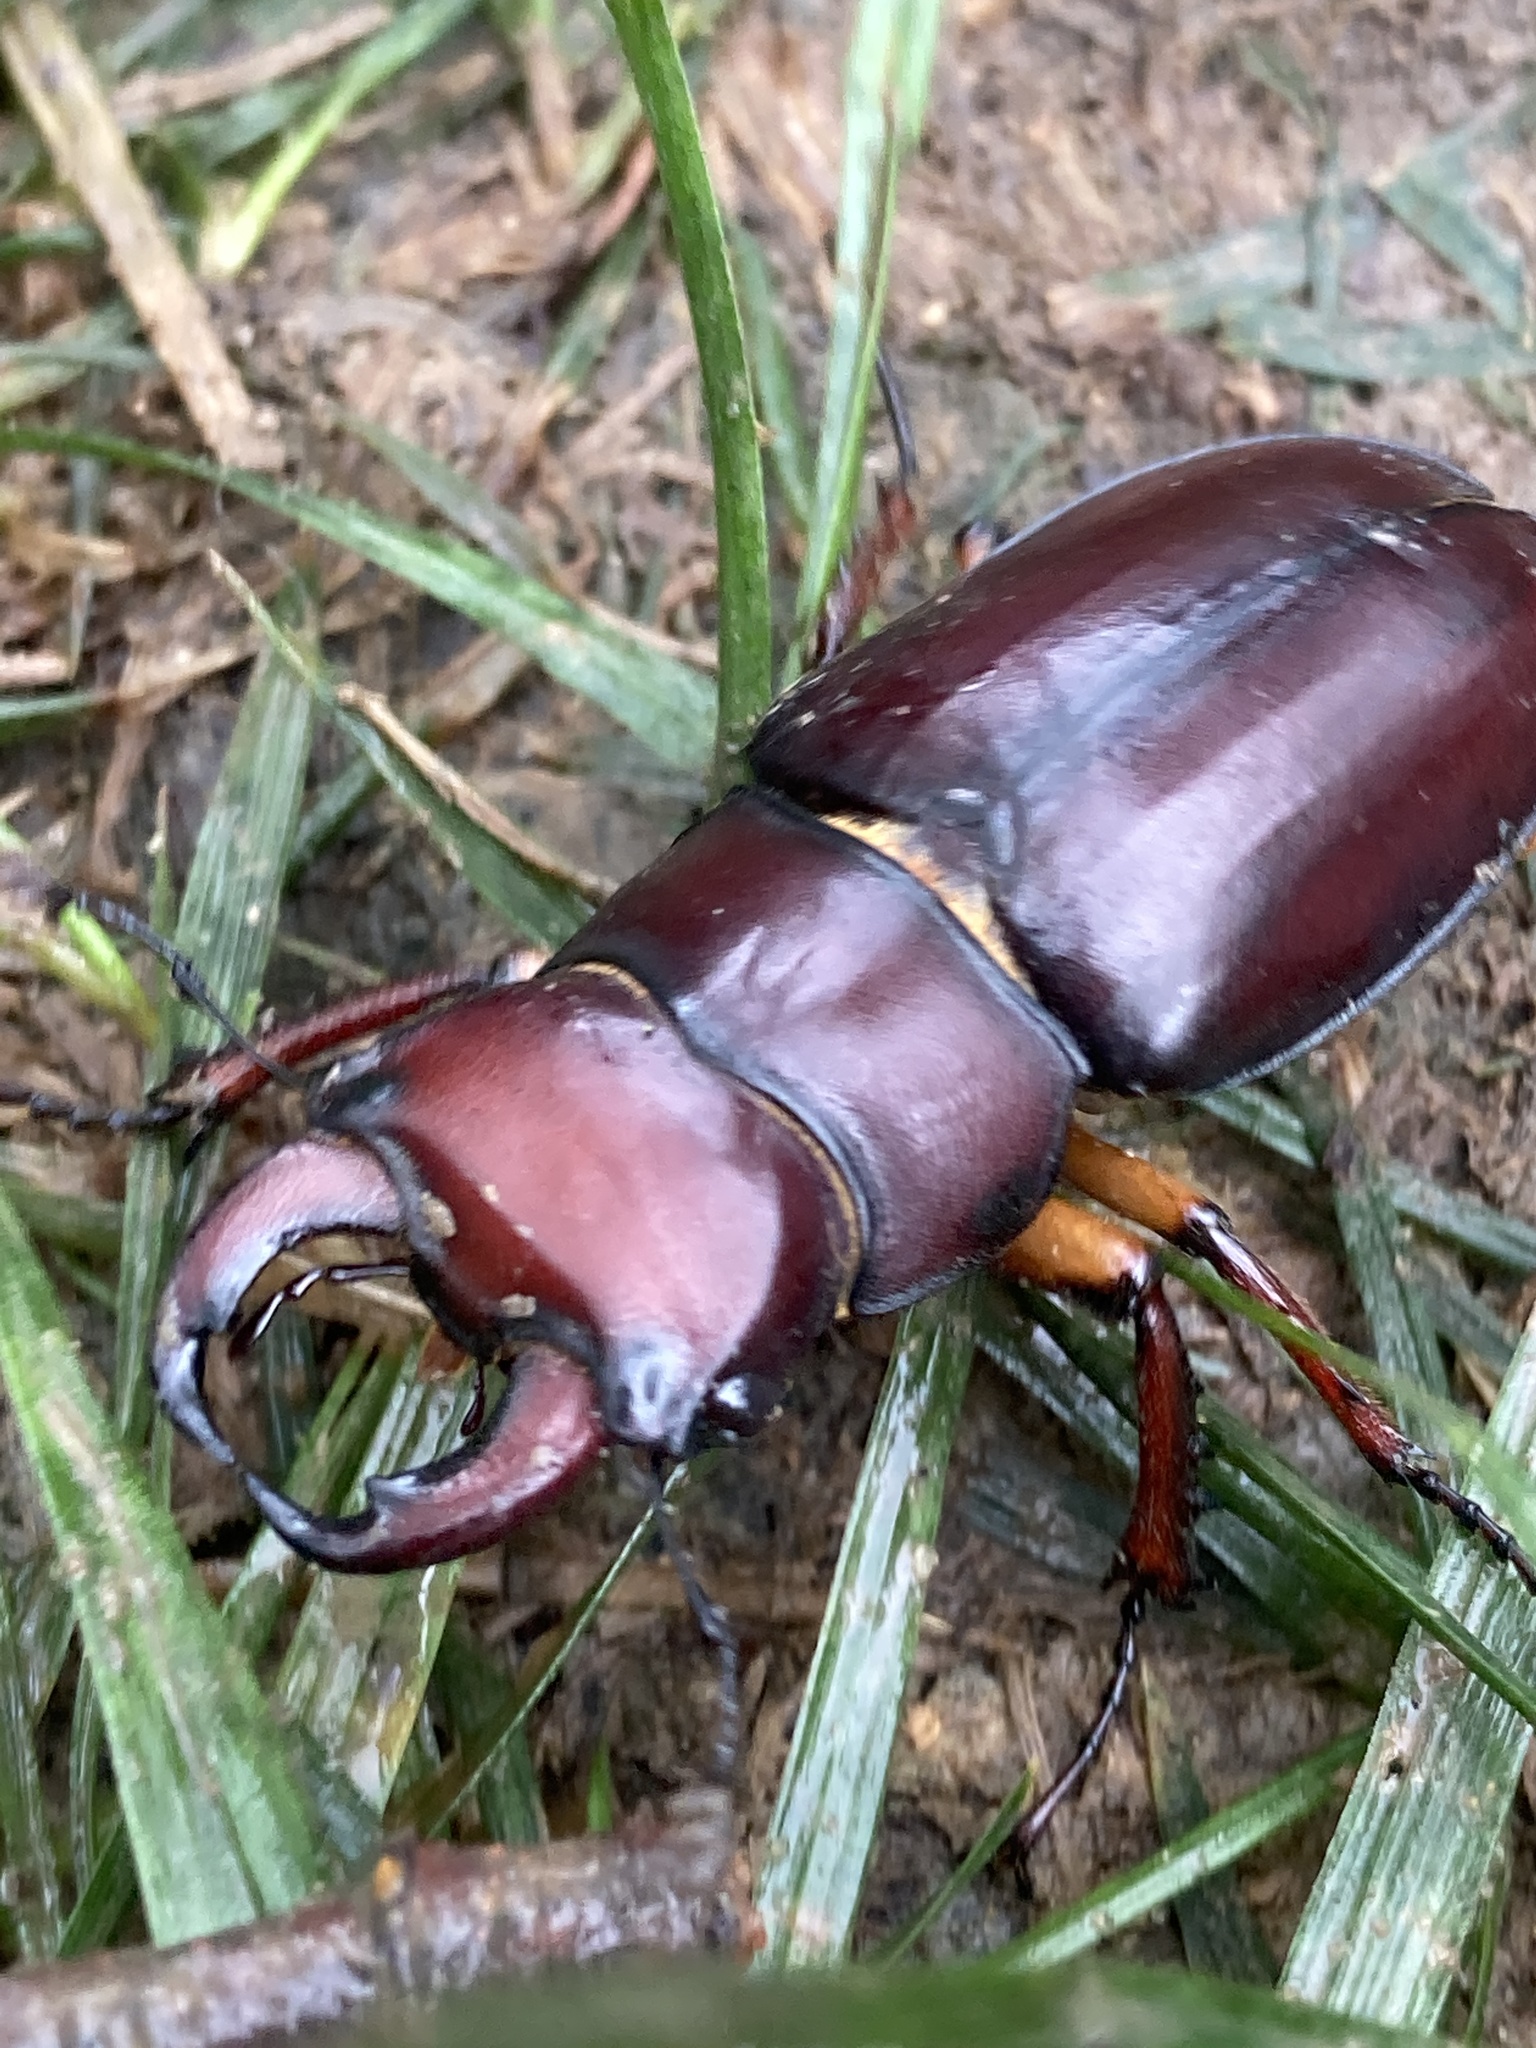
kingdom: Animalia
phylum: Arthropoda
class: Insecta
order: Coleoptera
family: Lucanidae
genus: Lucanus
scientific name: Lucanus capreolus
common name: Stag beetle
